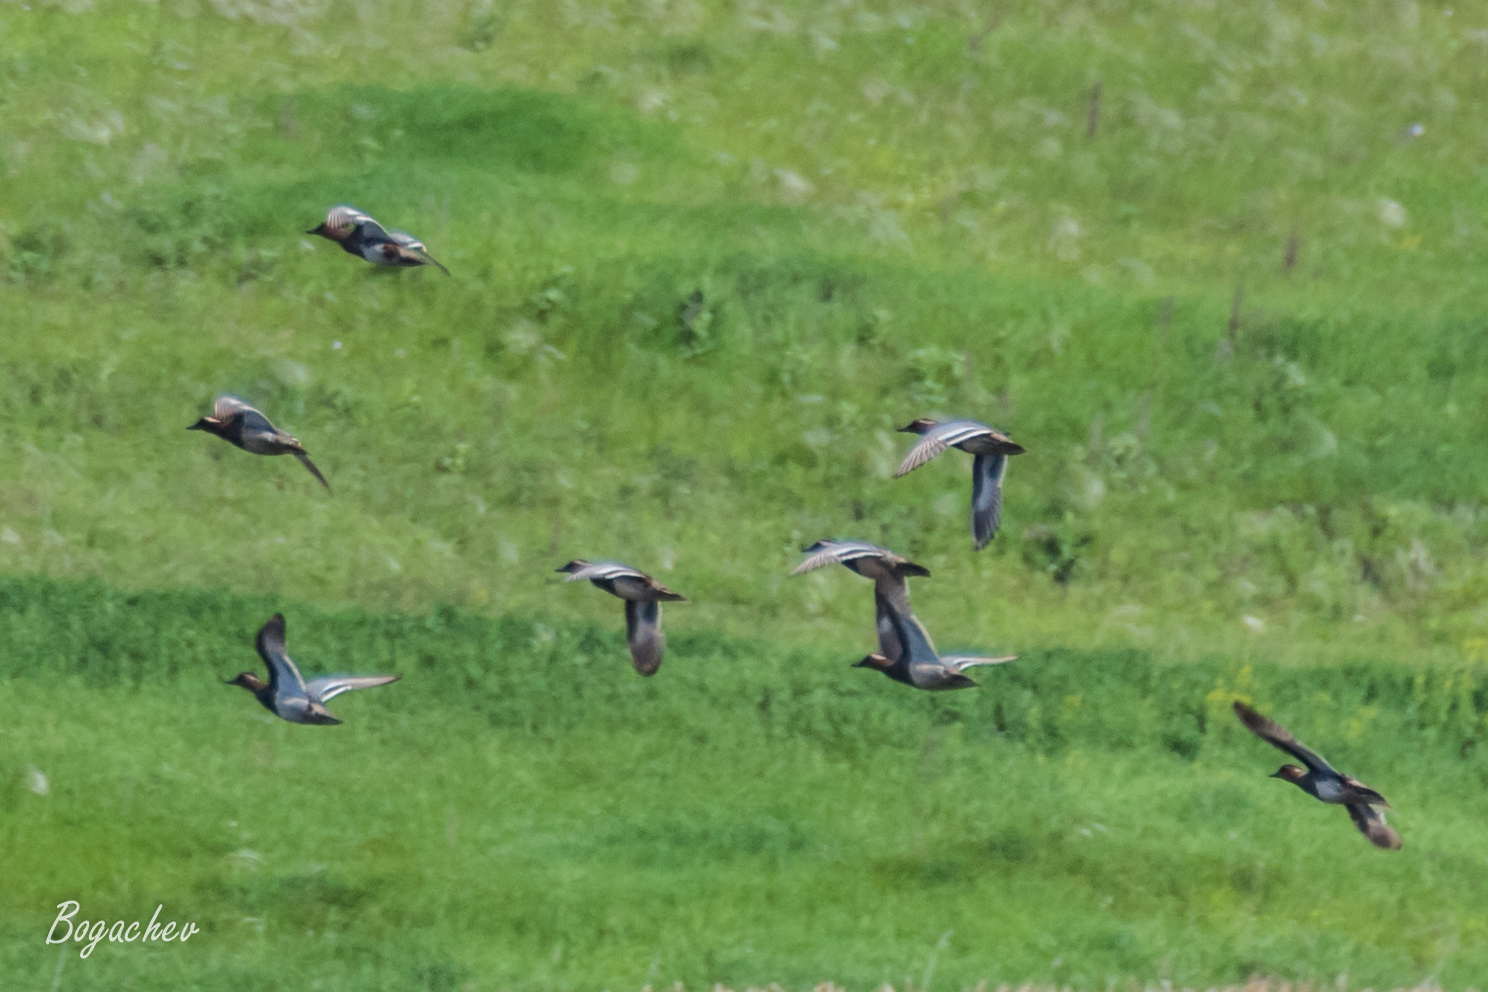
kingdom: Animalia
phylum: Chordata
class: Aves
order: Anseriformes
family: Anatidae
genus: Spatula
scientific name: Spatula querquedula
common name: Garganey
